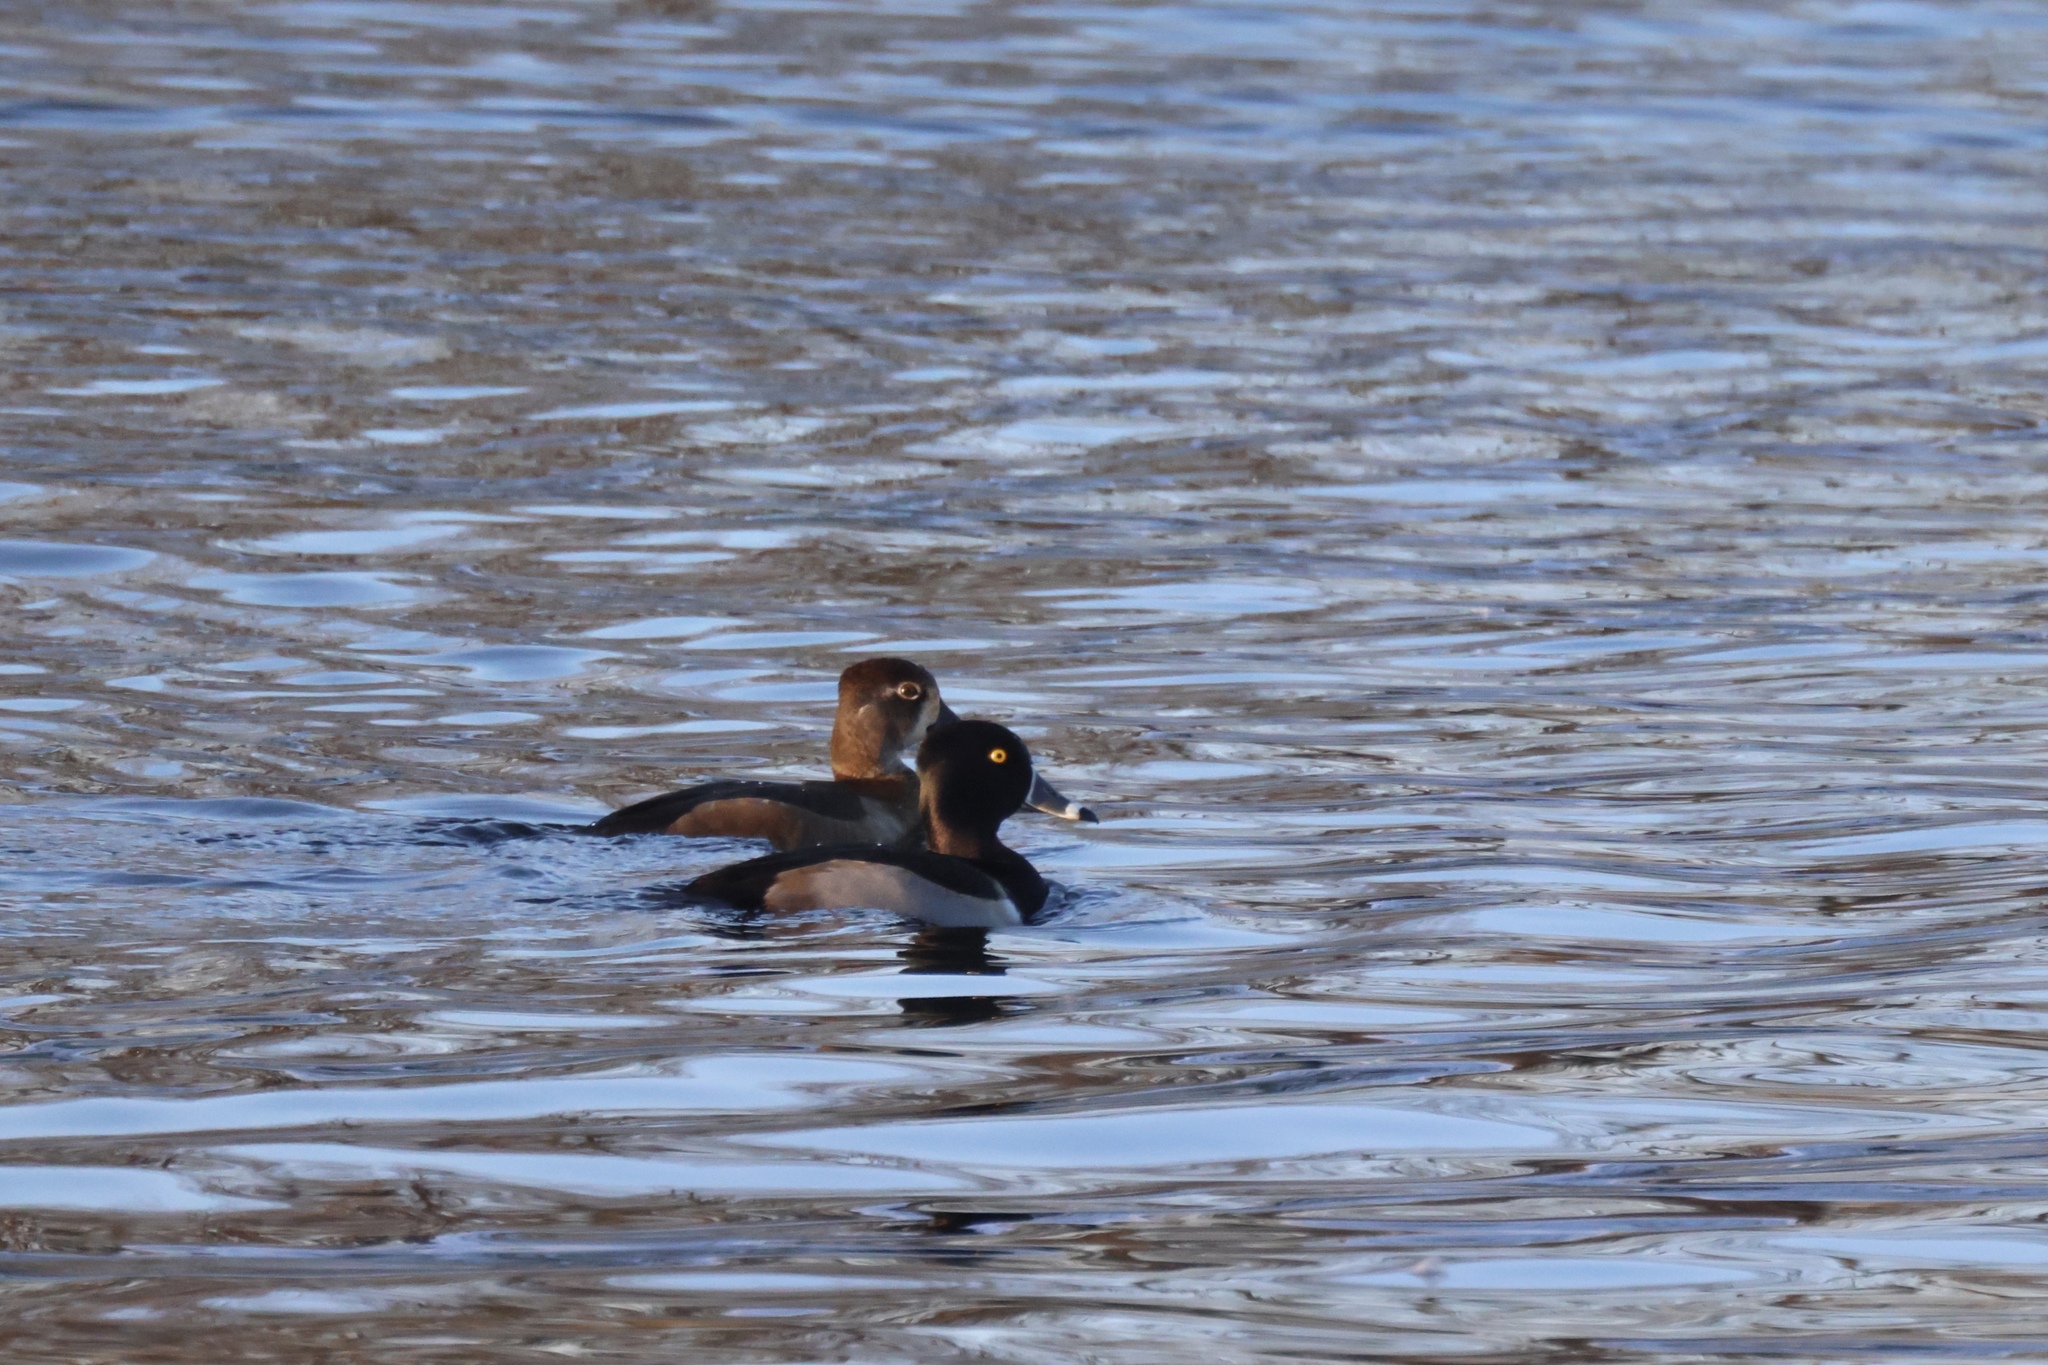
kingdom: Animalia
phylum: Chordata
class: Aves
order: Anseriformes
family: Anatidae
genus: Aythya
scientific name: Aythya collaris
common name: Ring-necked duck
